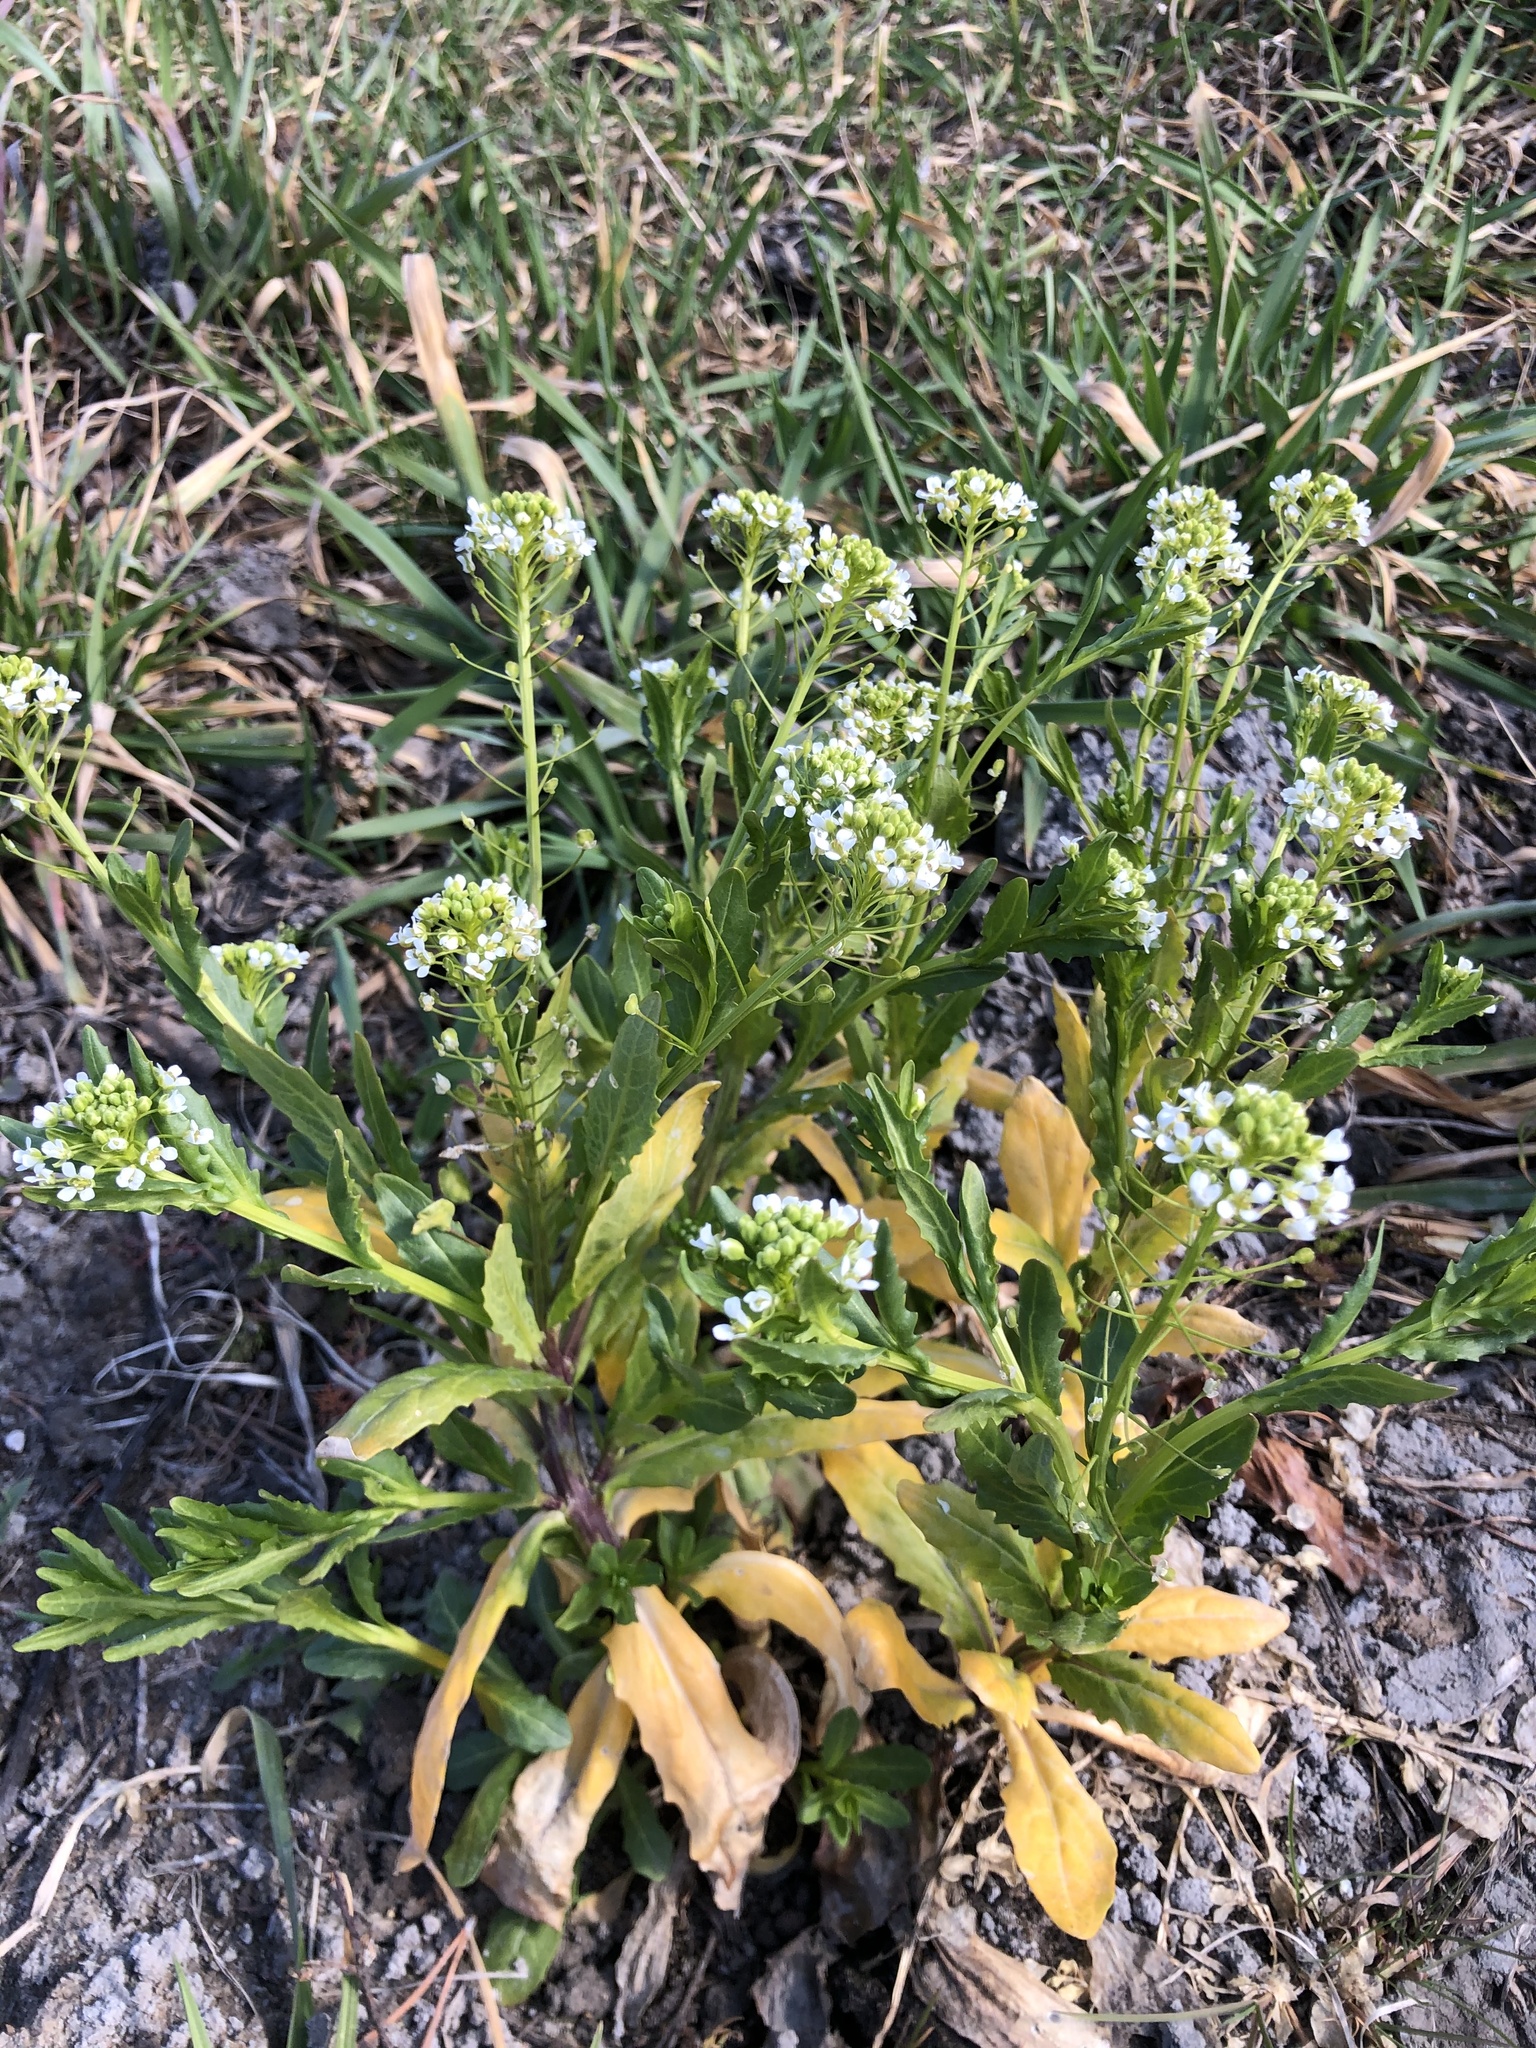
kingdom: Plantae
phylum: Tracheophyta
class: Magnoliopsida
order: Brassicales
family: Brassicaceae
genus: Thlaspi
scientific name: Thlaspi arvense
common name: Field pennycress
